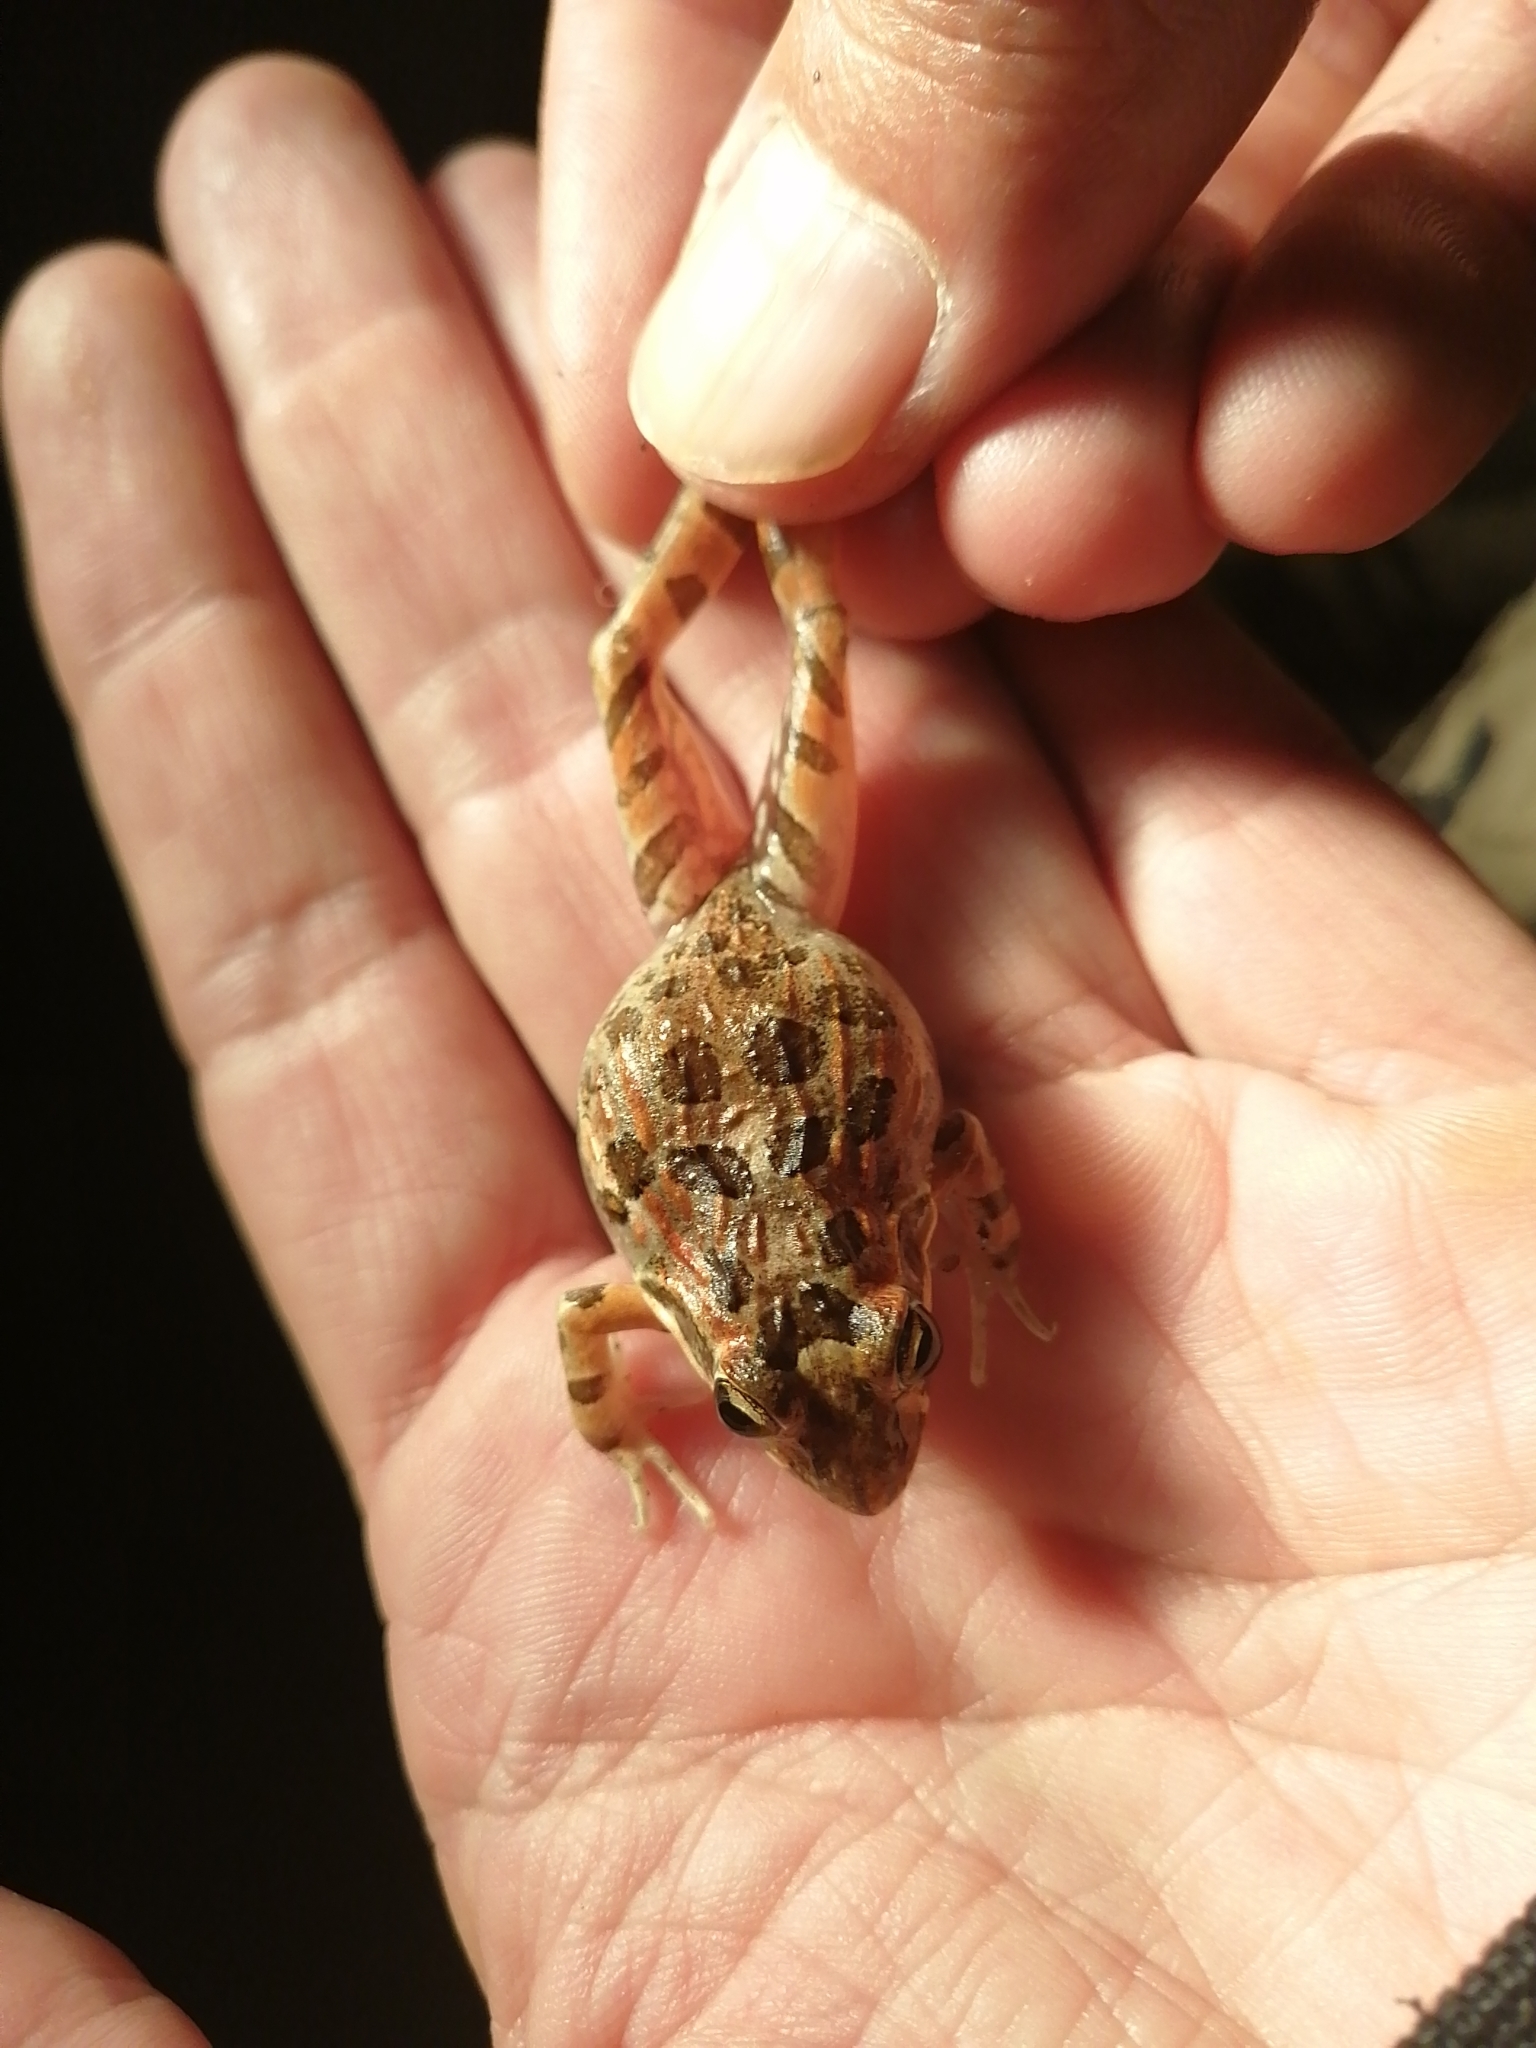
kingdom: Animalia
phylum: Chordata
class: Amphibia
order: Anura
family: Pyxicephalidae
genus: Strongylopus
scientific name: Strongylopus grayii
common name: Gray's stream frog
